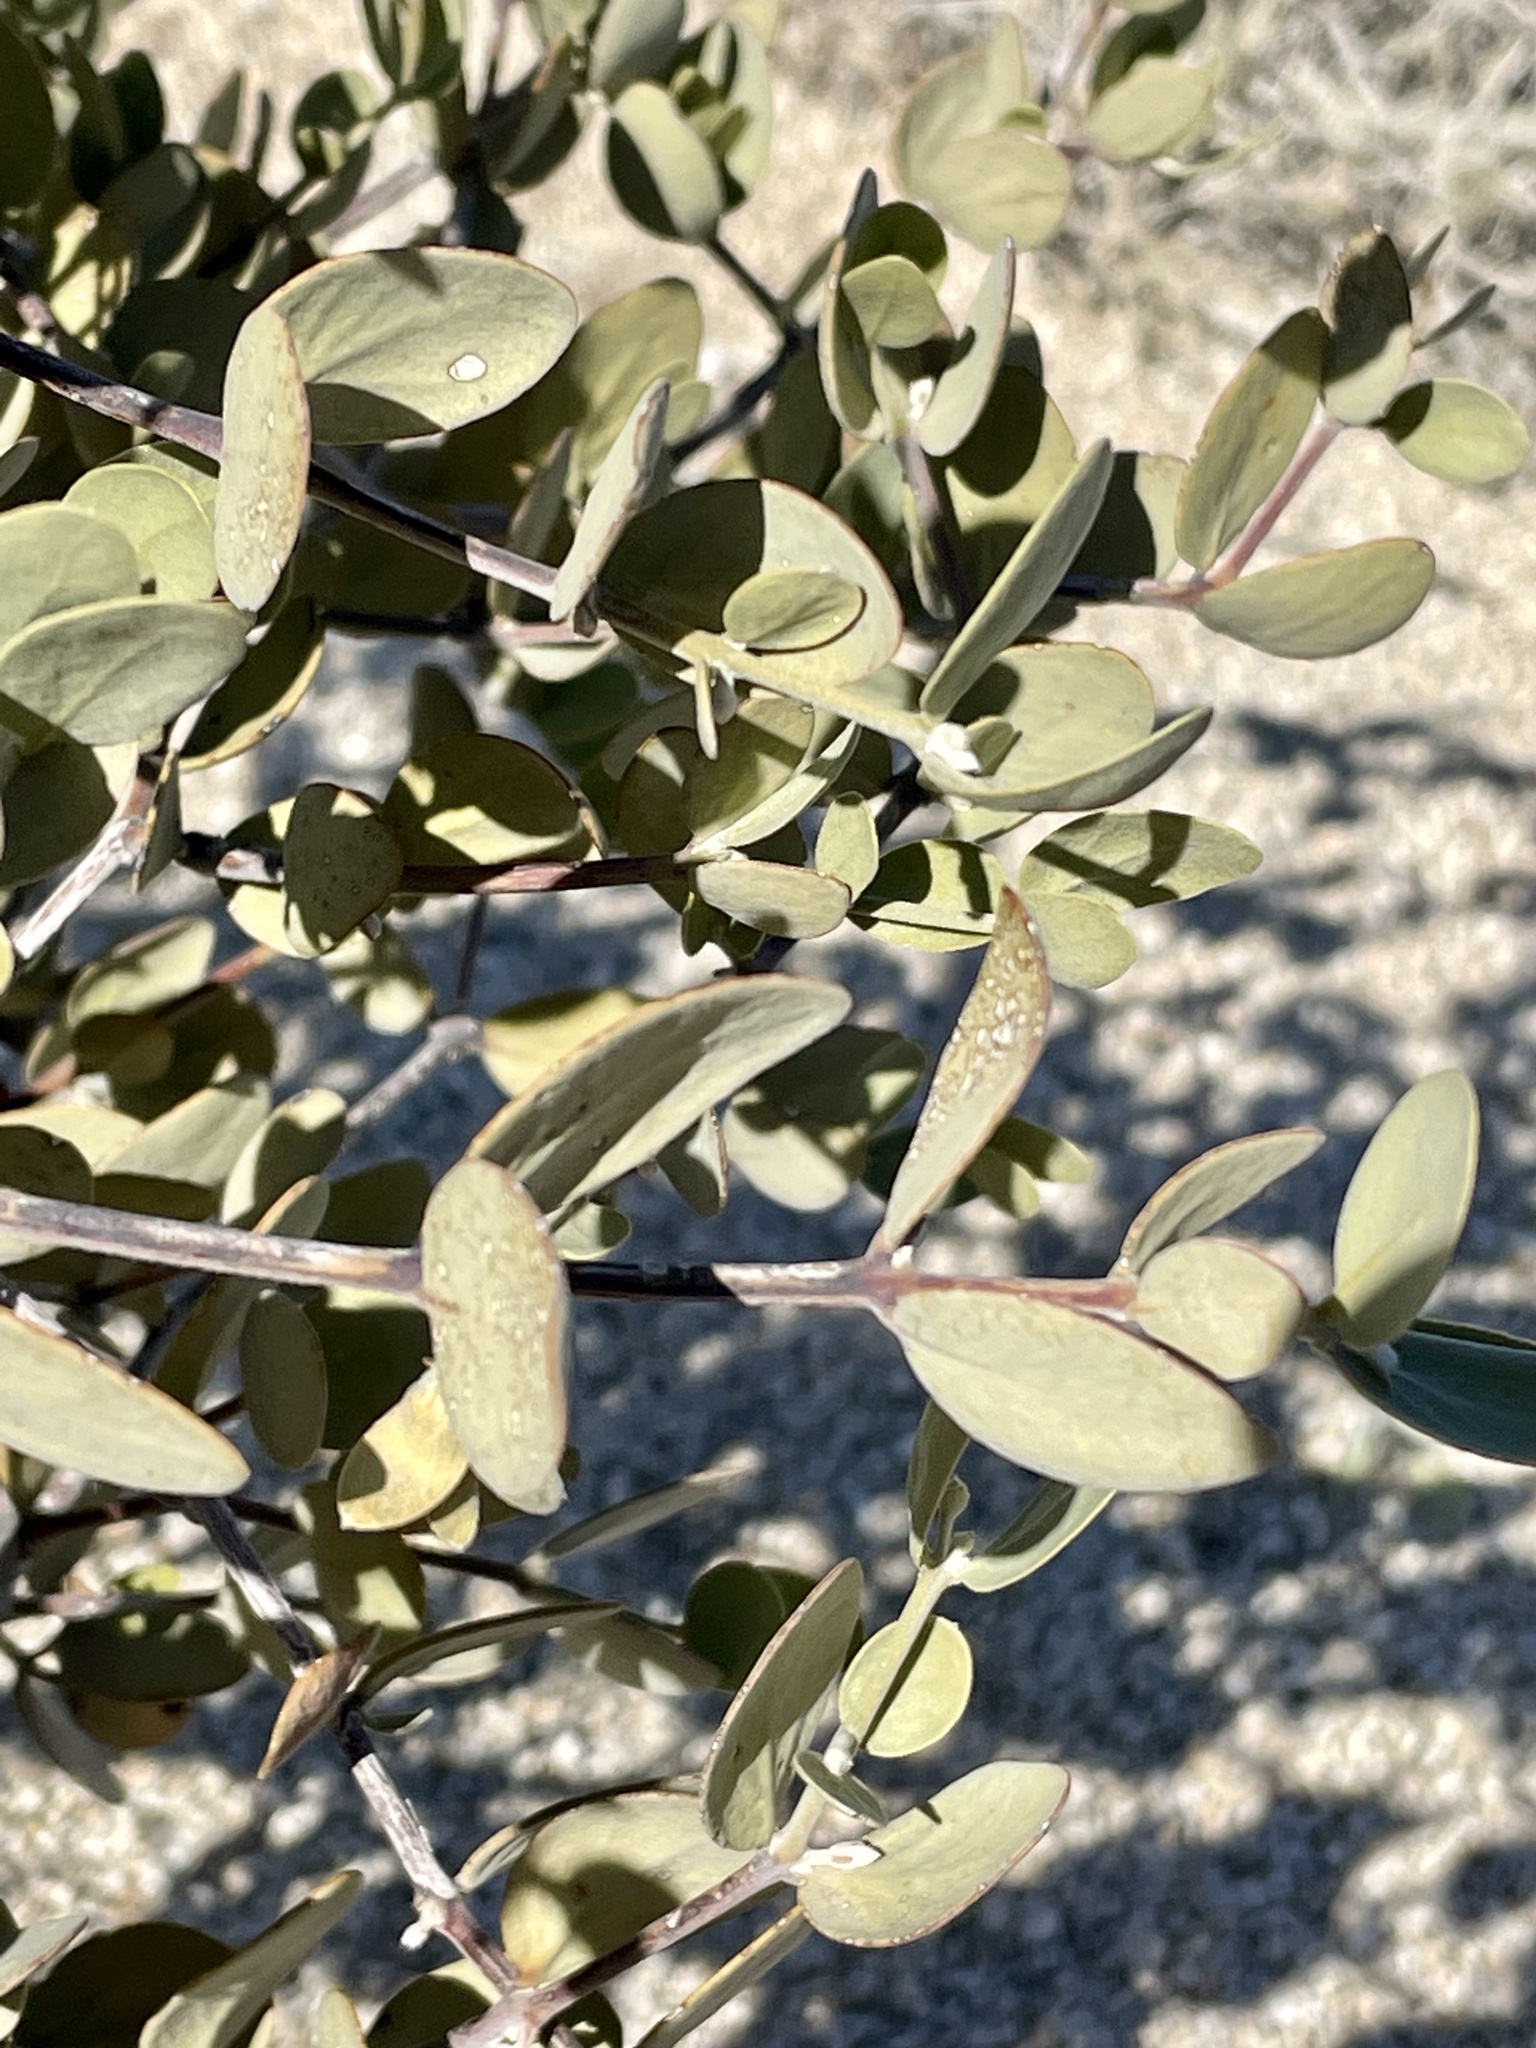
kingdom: Plantae
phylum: Tracheophyta
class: Magnoliopsida
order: Caryophyllales
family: Simmondsiaceae
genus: Simmondsia
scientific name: Simmondsia chinensis
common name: Jojoba
